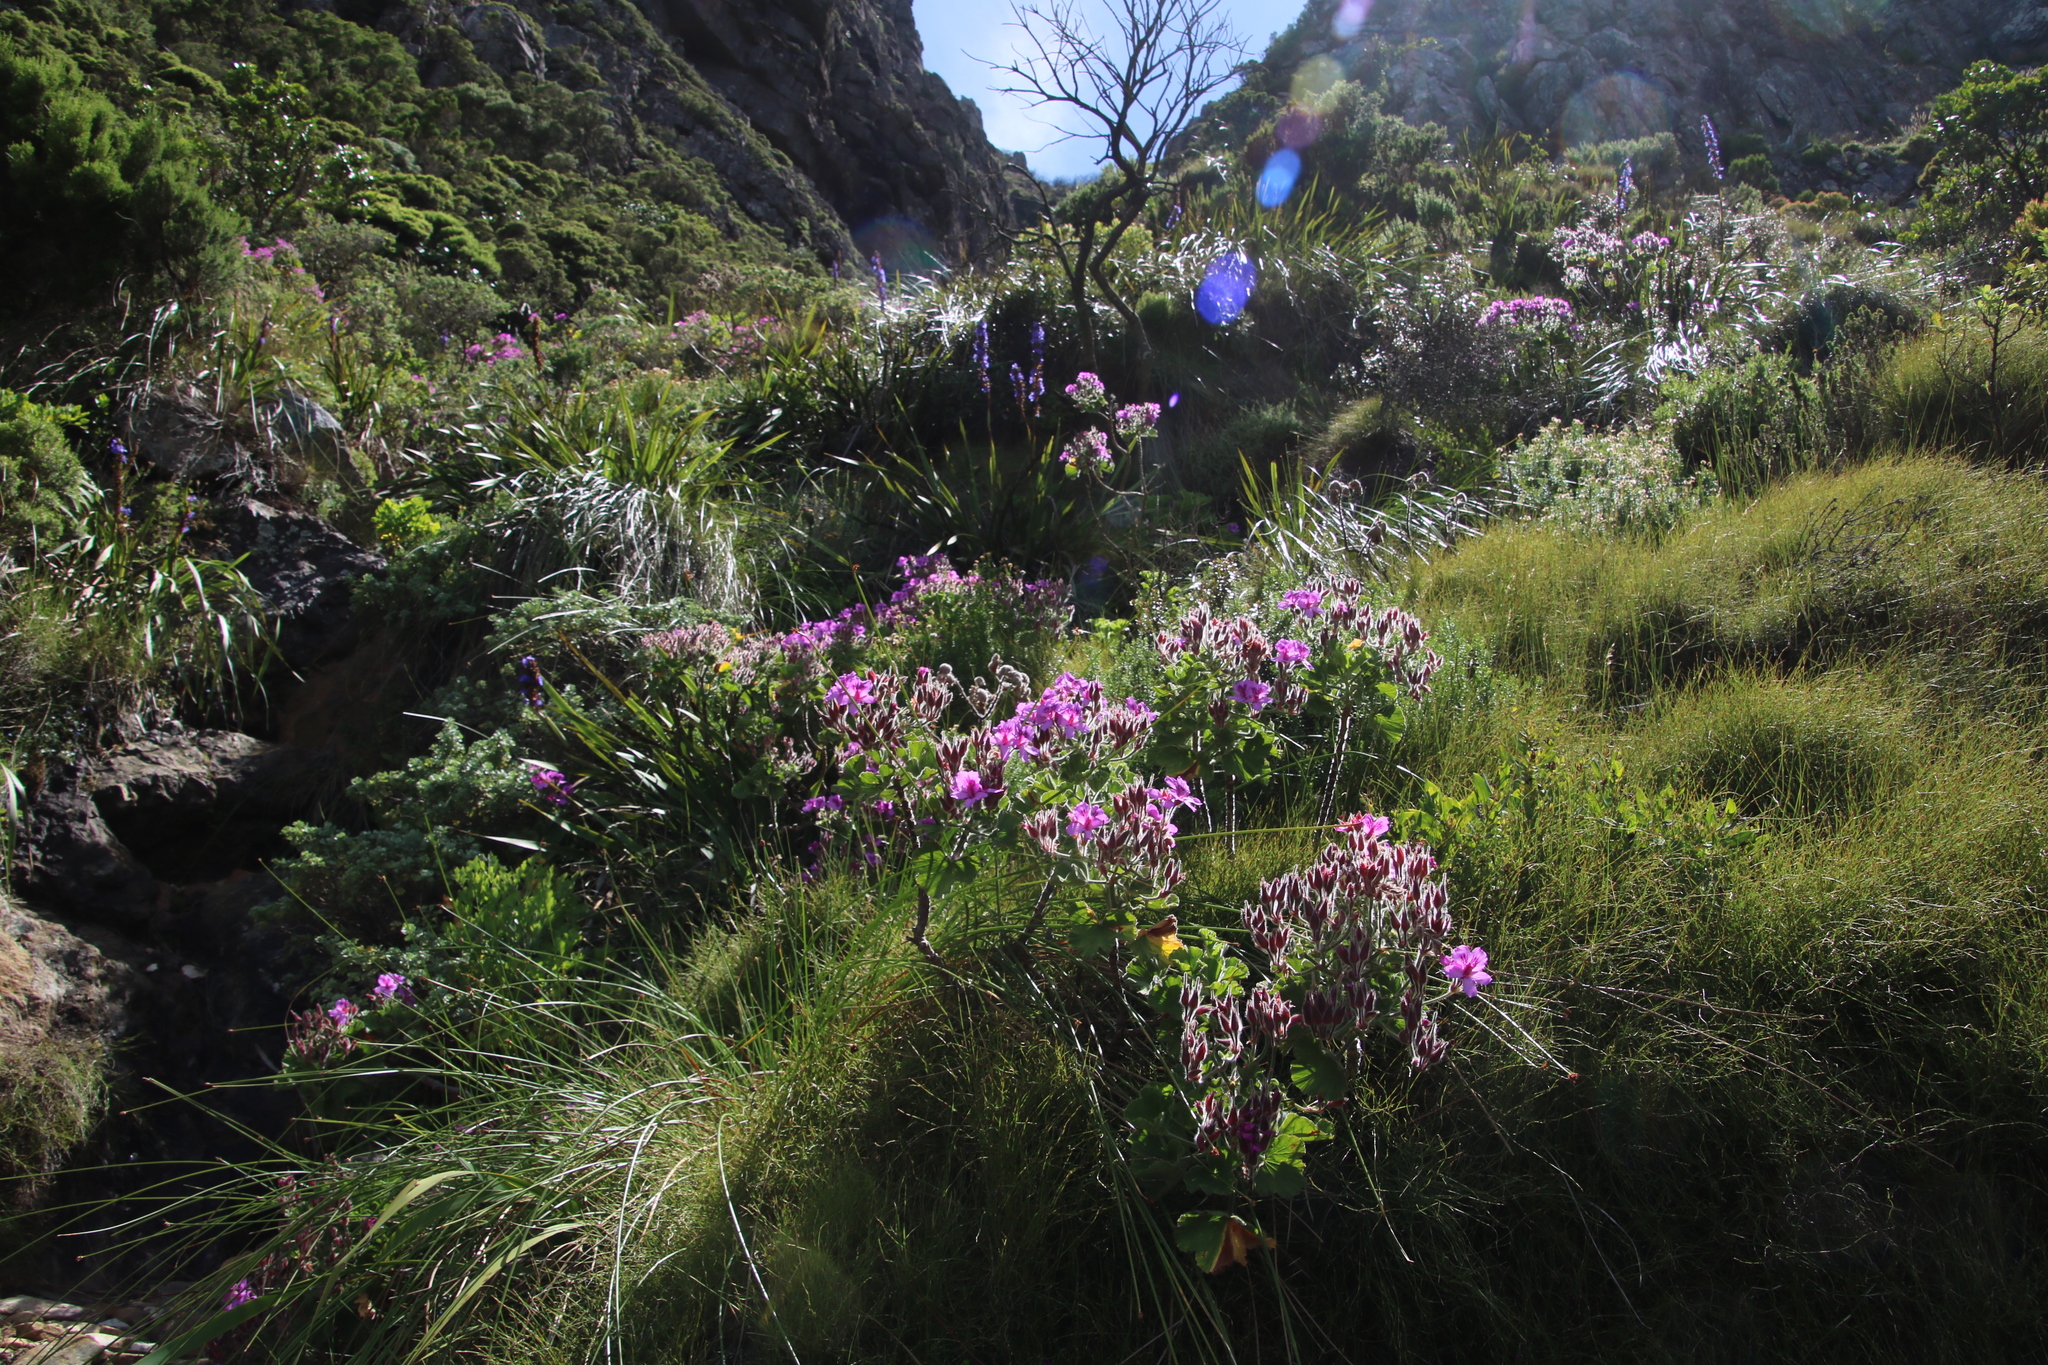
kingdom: Plantae
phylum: Tracheophyta
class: Magnoliopsida
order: Geraniales
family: Geraniaceae
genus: Pelargonium
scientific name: Pelargonium cucullatum
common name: Tree pelargonium
